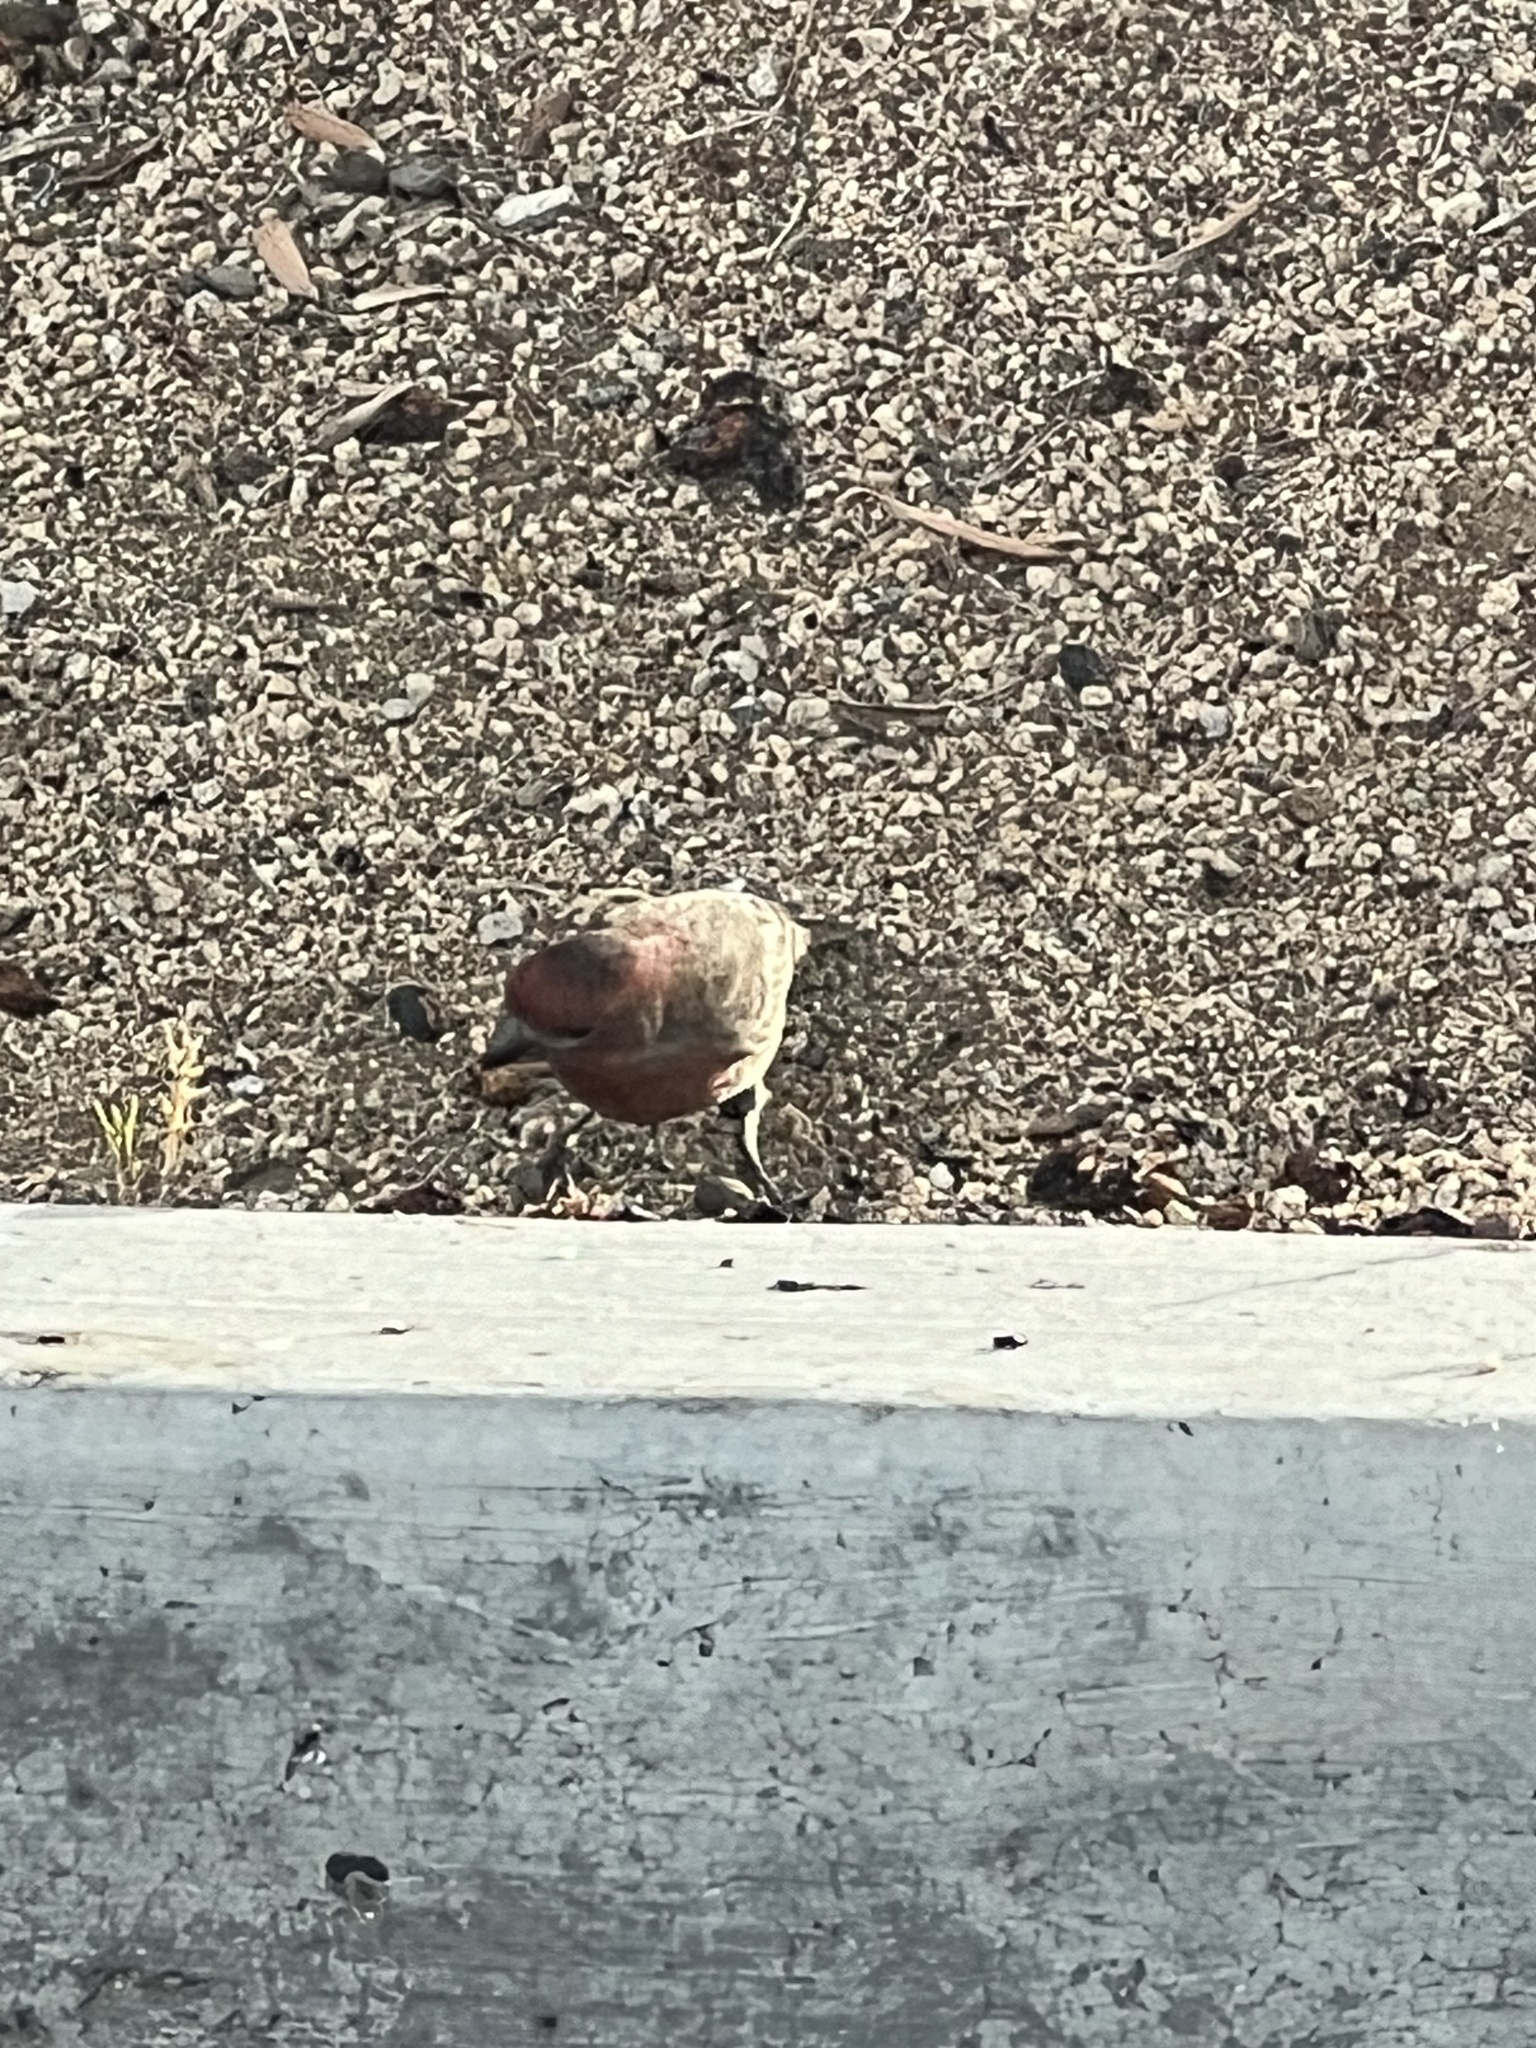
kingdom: Animalia
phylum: Chordata
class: Aves
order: Passeriformes
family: Fringillidae
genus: Haemorhous
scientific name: Haemorhous mexicanus
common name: House finch
